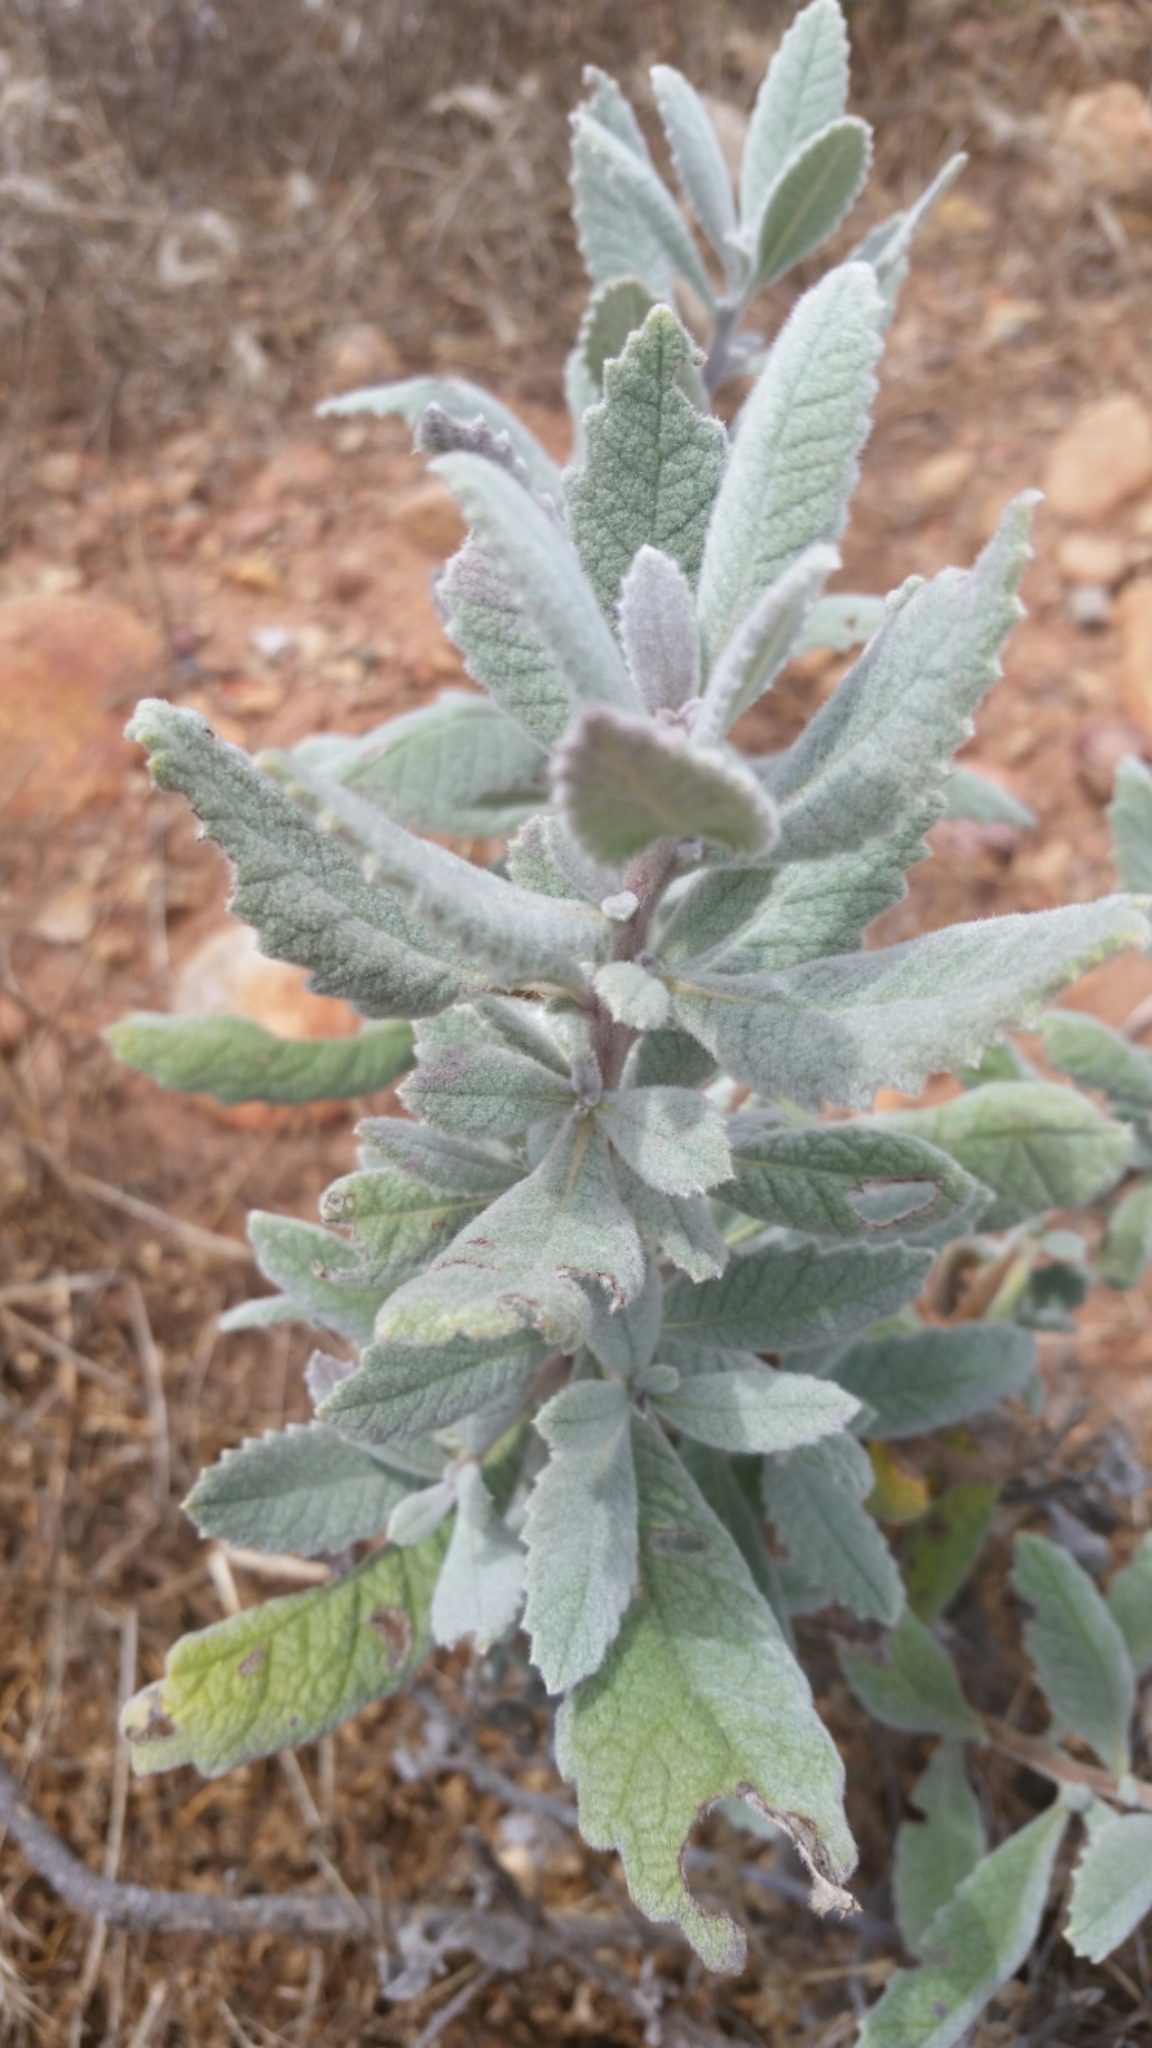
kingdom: Plantae
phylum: Tracheophyta
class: Magnoliopsida
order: Boraginales
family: Namaceae
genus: Eriodictyon
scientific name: Eriodictyon crassifolium
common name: Thick-leaf yerba-santa
